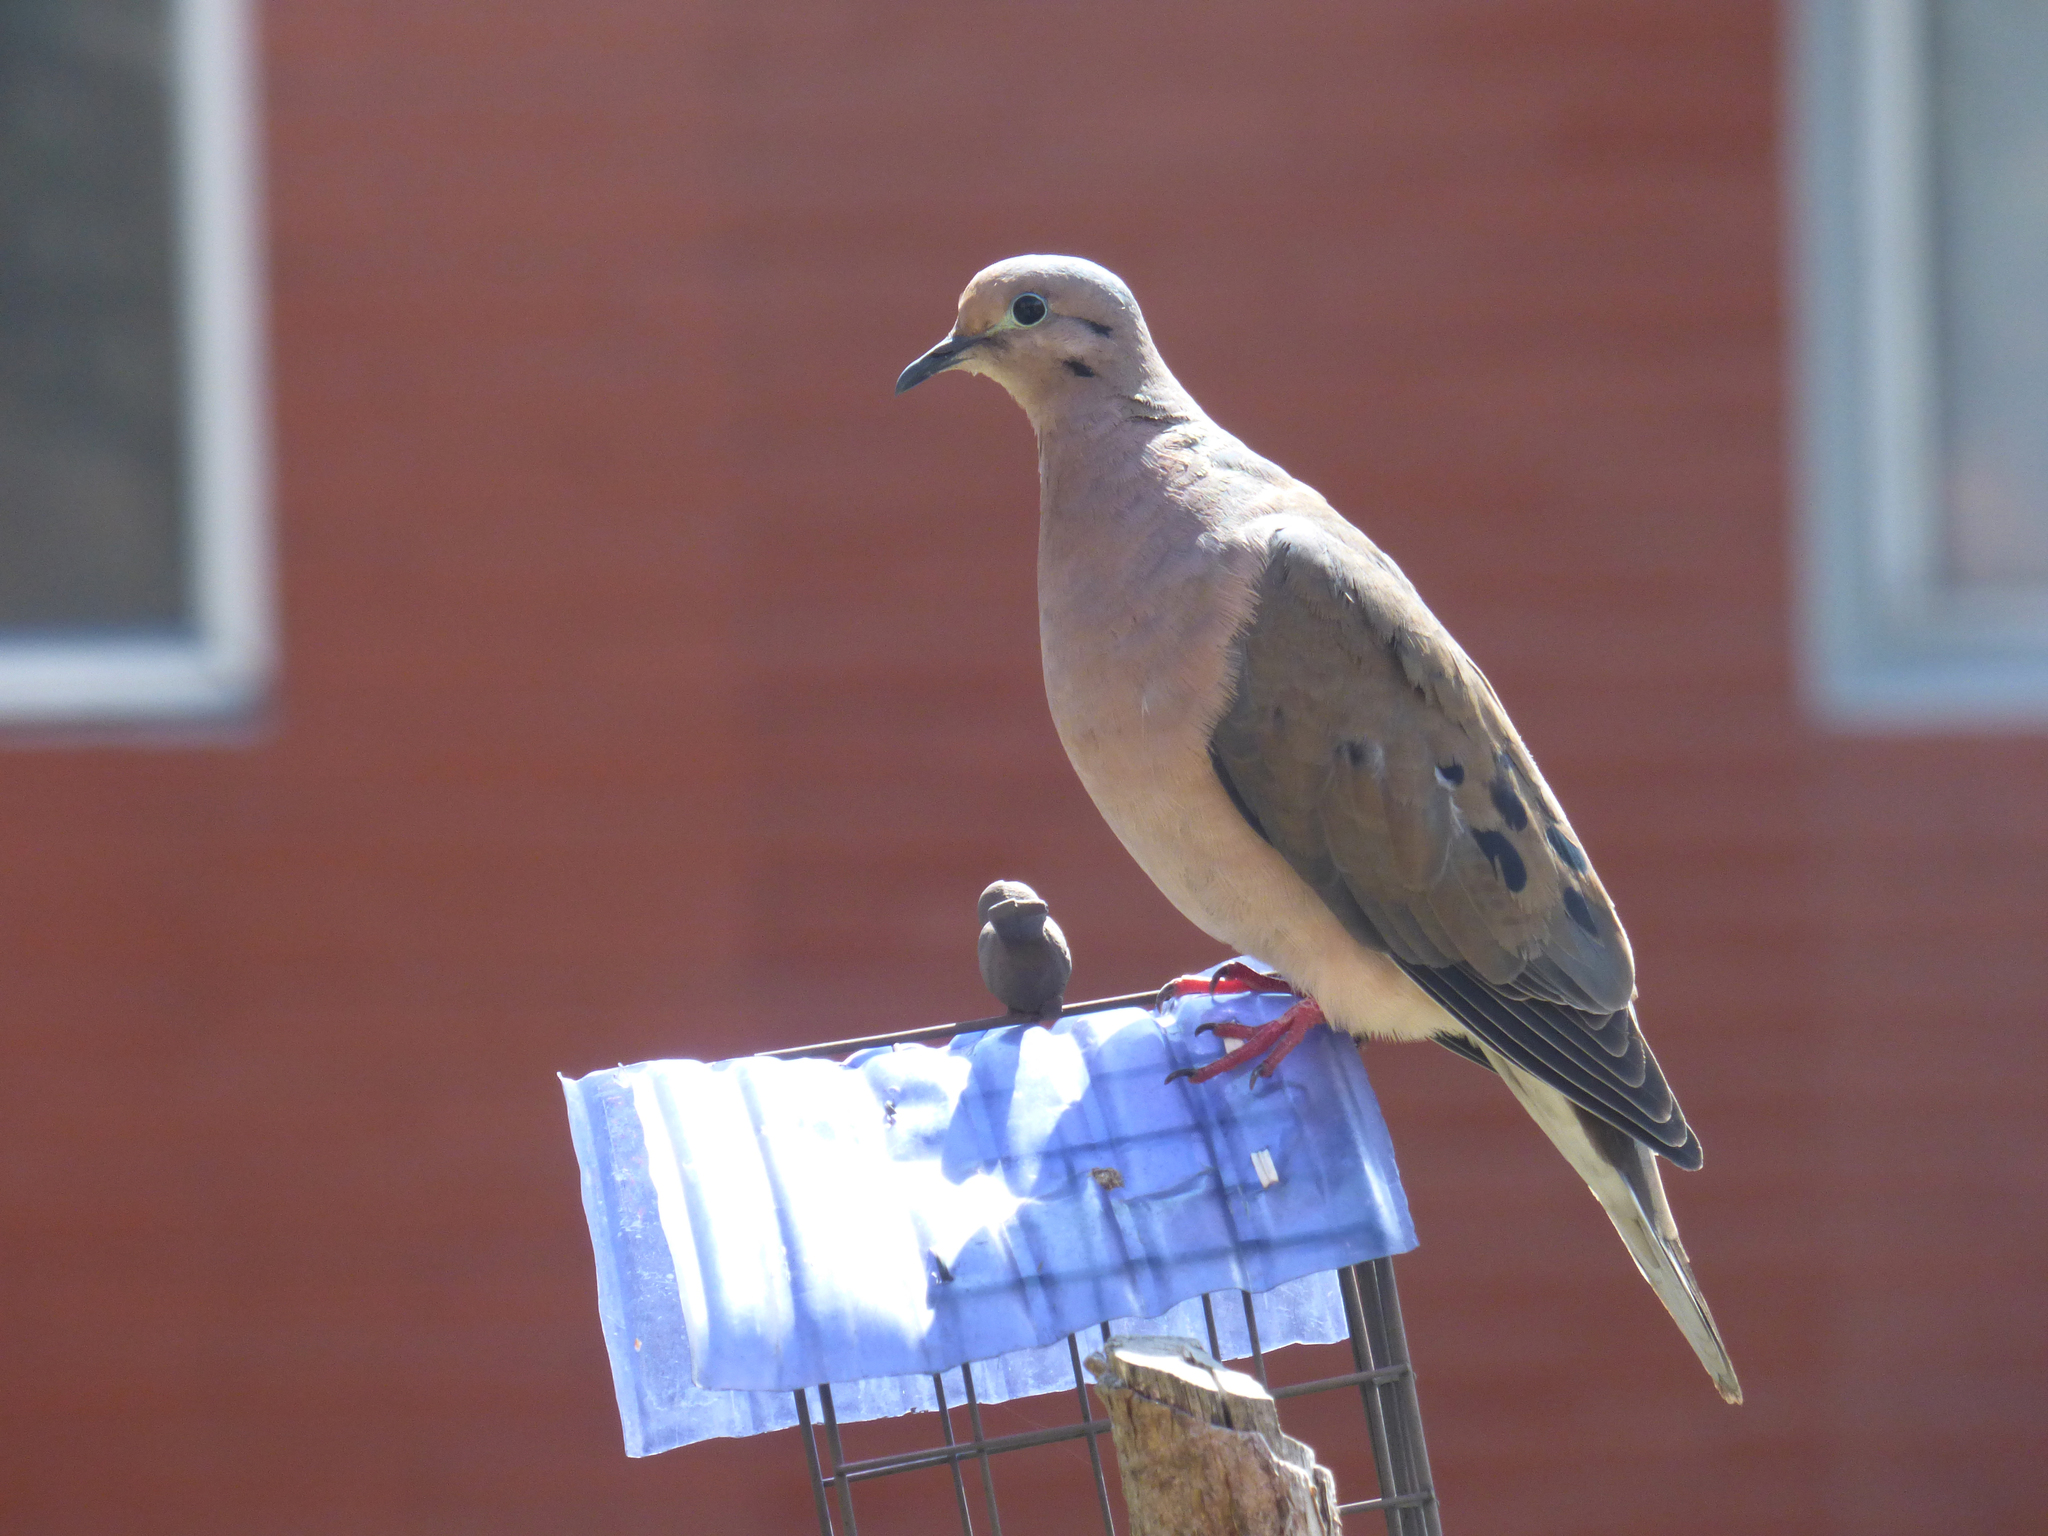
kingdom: Animalia
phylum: Chordata
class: Aves
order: Columbiformes
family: Columbidae
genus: Zenaida
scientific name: Zenaida auriculata
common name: Eared dove
